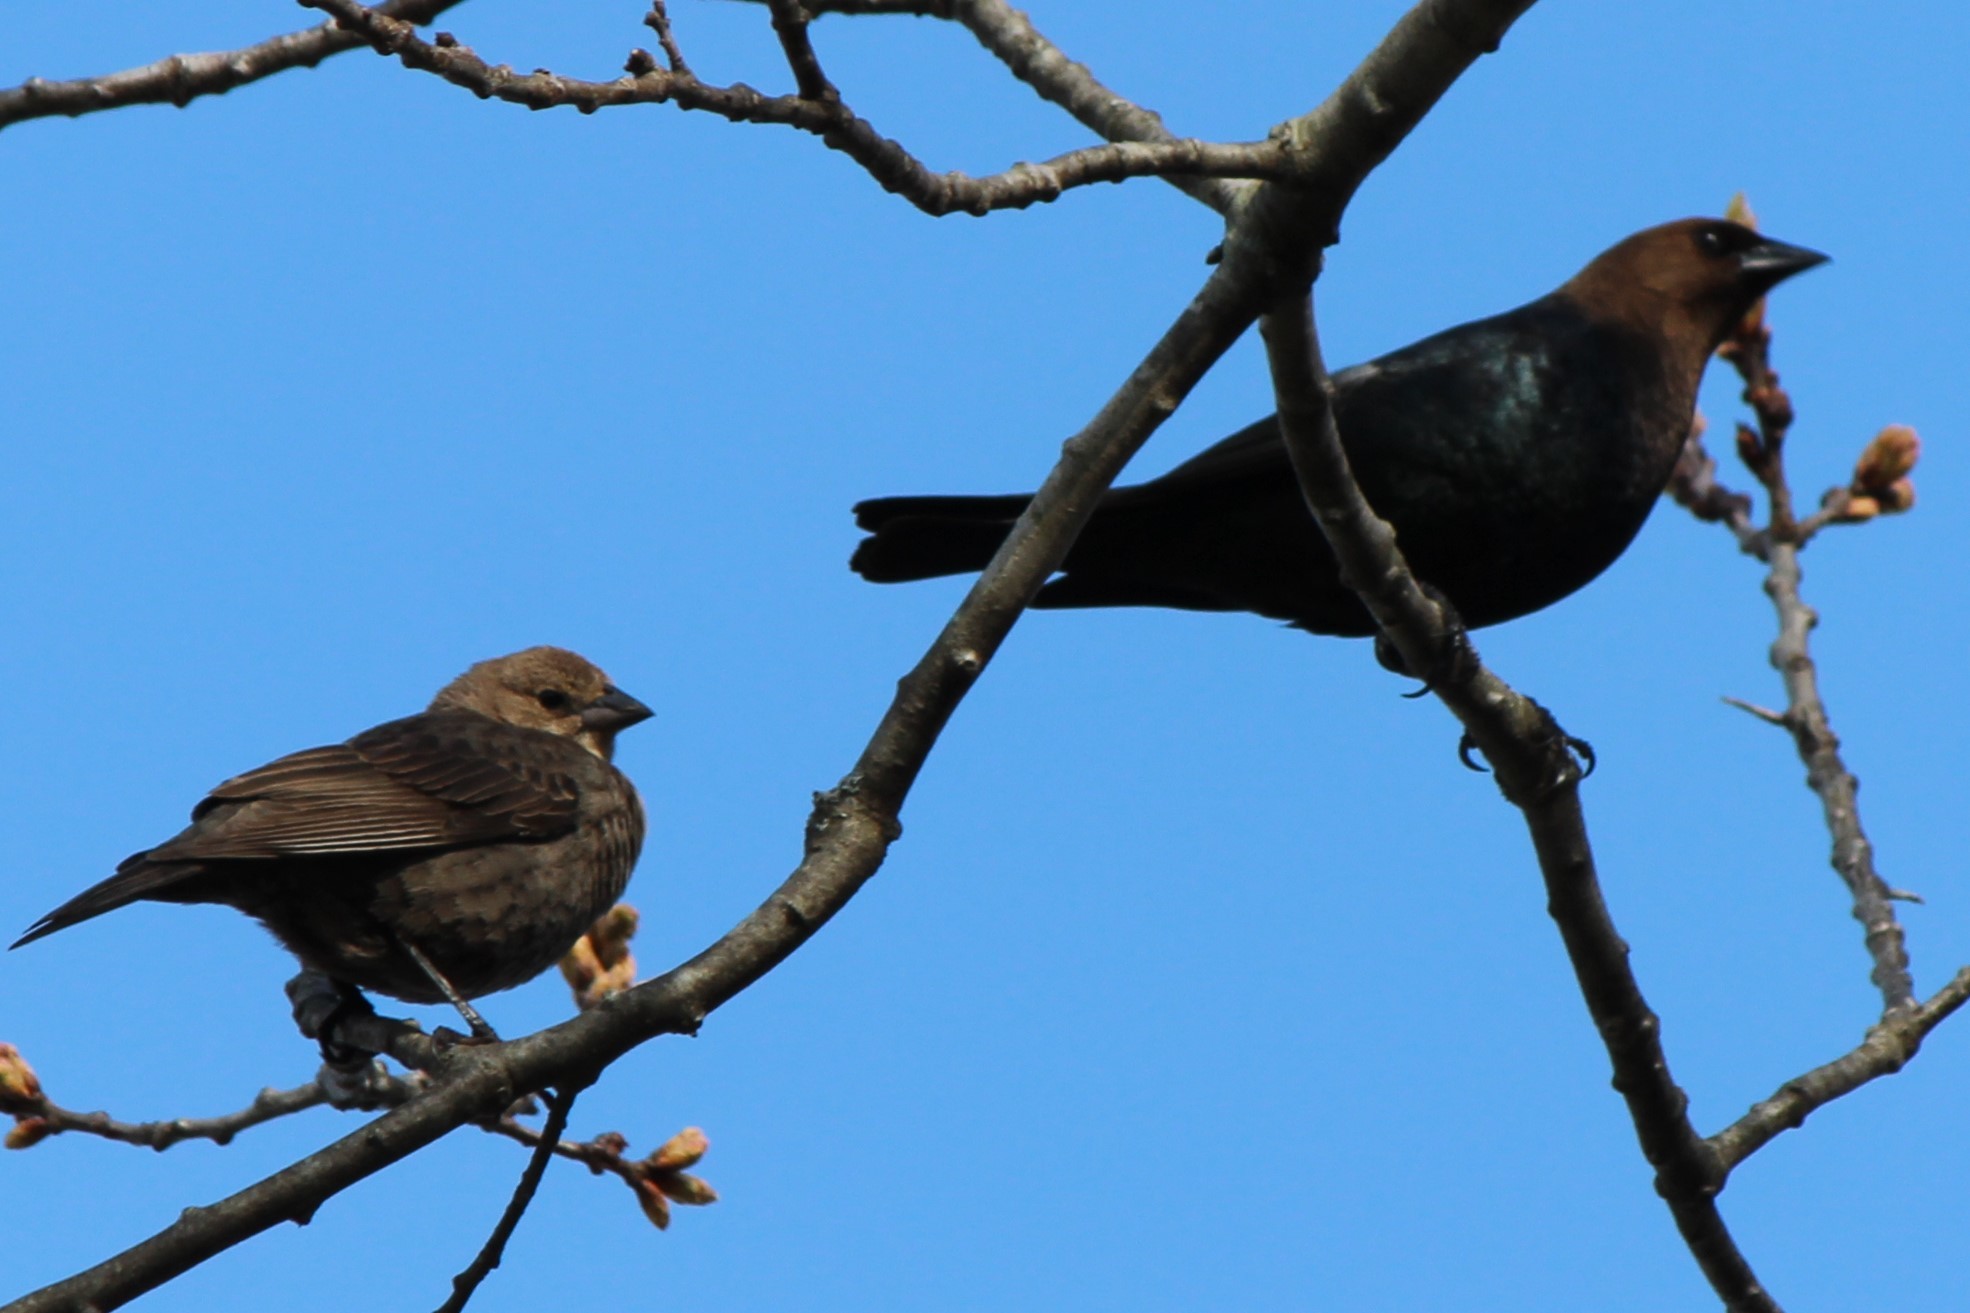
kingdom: Animalia
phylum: Chordata
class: Aves
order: Passeriformes
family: Fringillidae
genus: Haemorhous
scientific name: Haemorhous purpureus
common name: Purple finch
